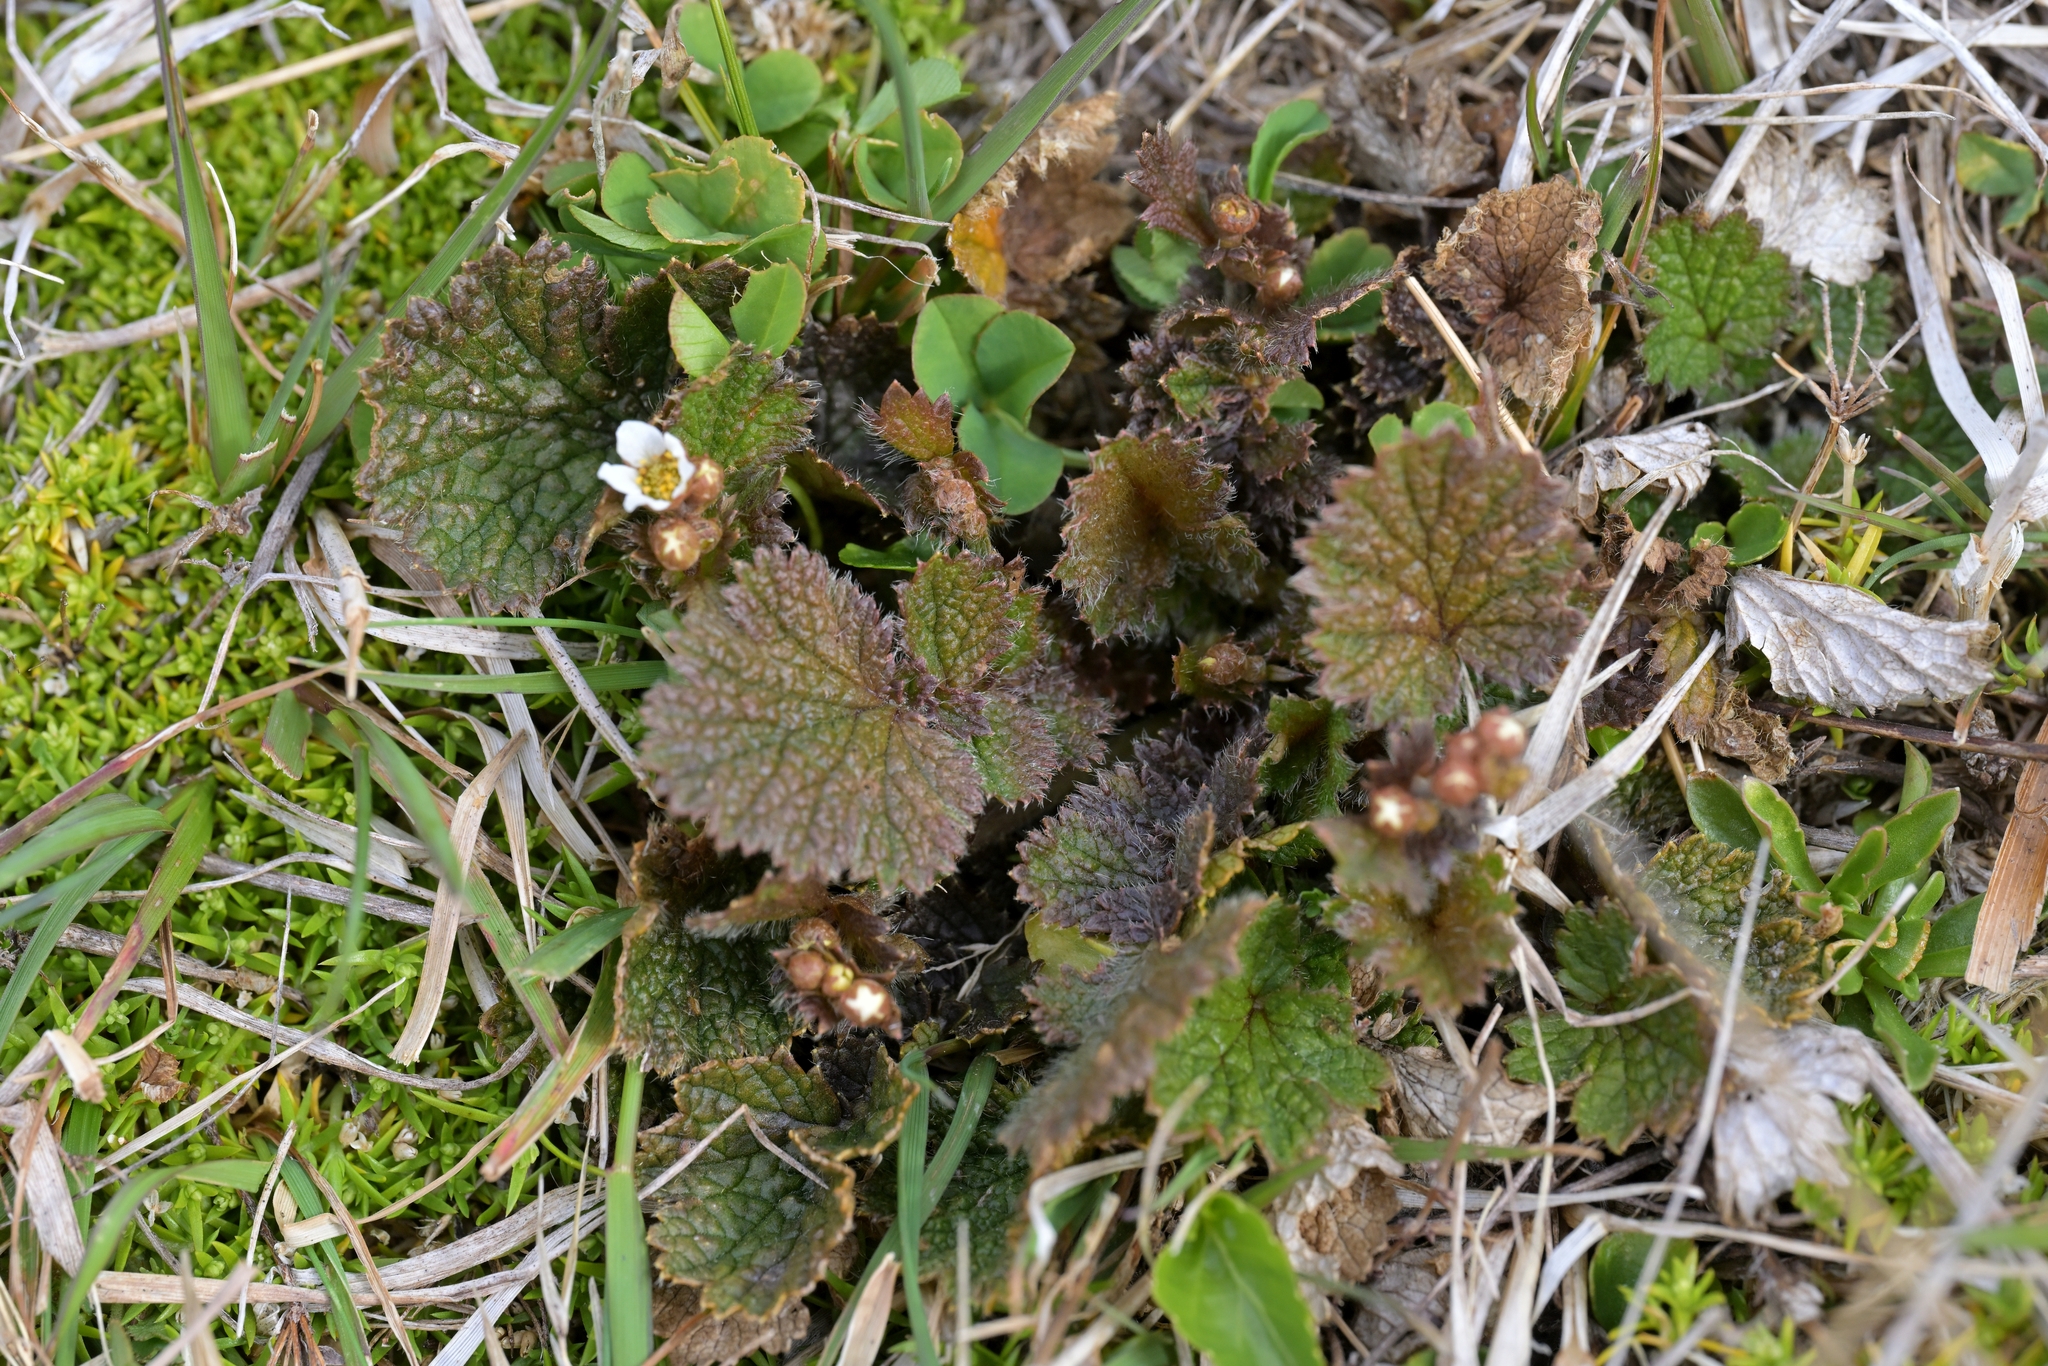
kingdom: Plantae
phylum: Tracheophyta
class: Magnoliopsida
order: Rosales
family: Rosaceae
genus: Geum
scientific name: Geum leiospermum
